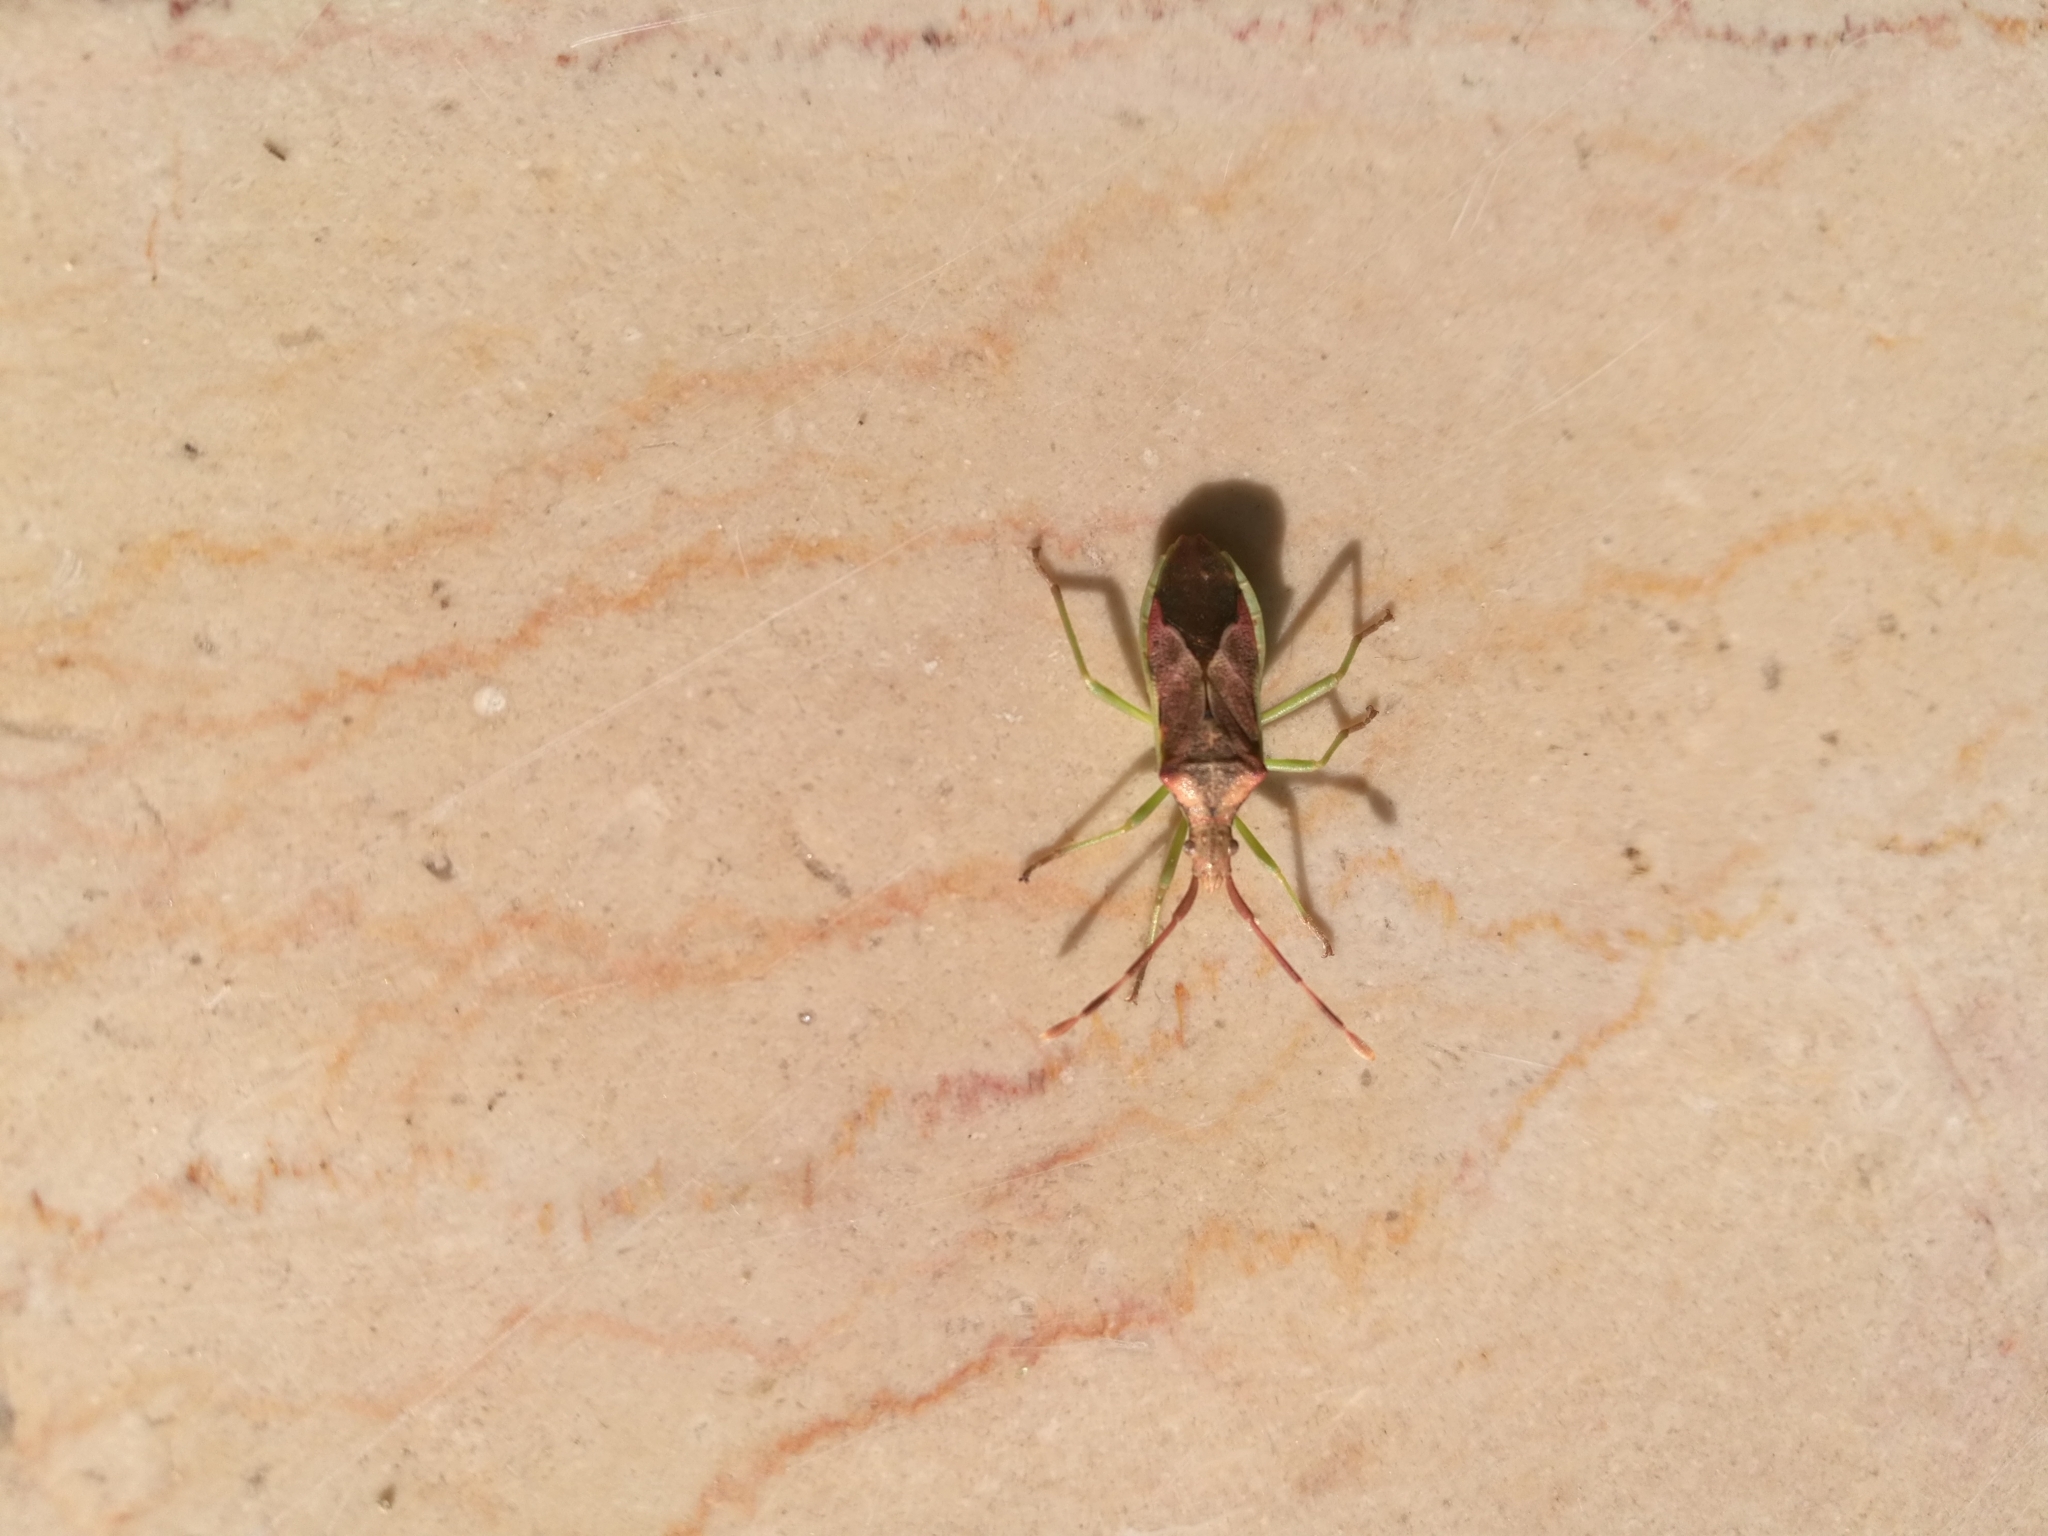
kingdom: Animalia
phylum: Arthropoda
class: Insecta
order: Hemiptera
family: Coreidae
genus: Gonocerus
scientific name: Gonocerus juniperi
